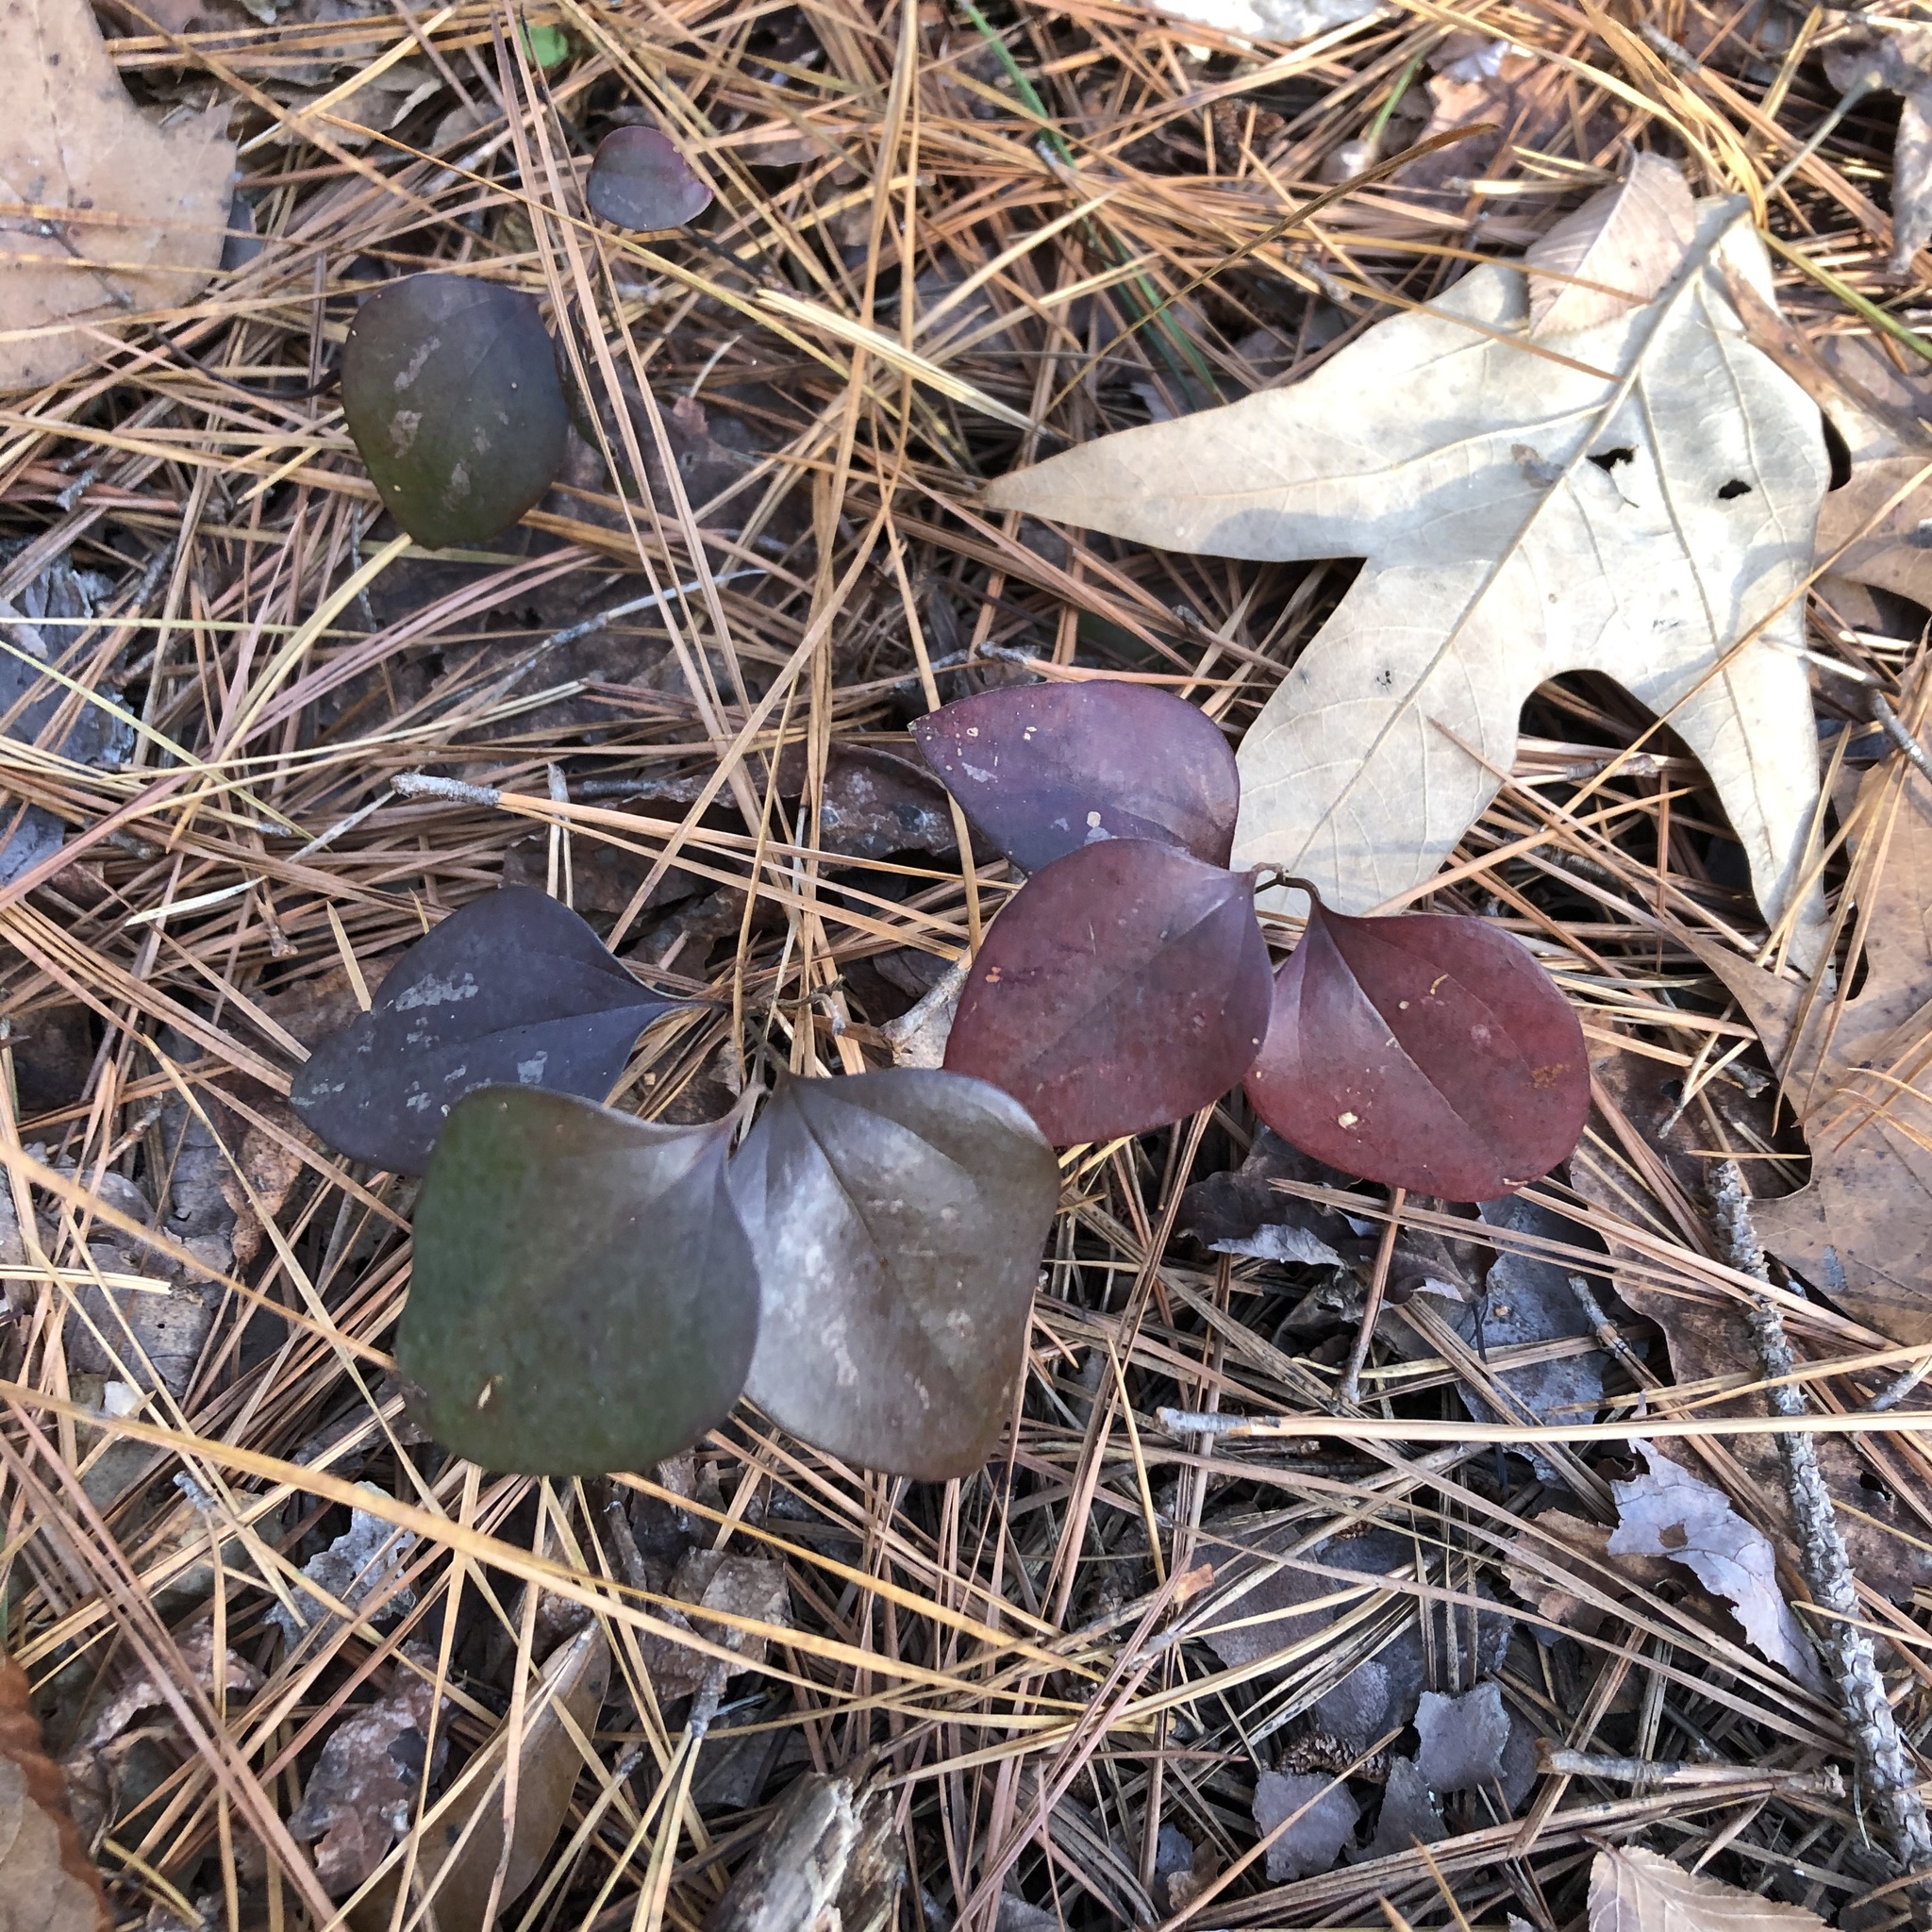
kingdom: Plantae
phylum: Tracheophyta
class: Liliopsida
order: Liliales
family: Smilacaceae
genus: Smilax
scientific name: Smilax glauca
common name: Cat greenbrier
